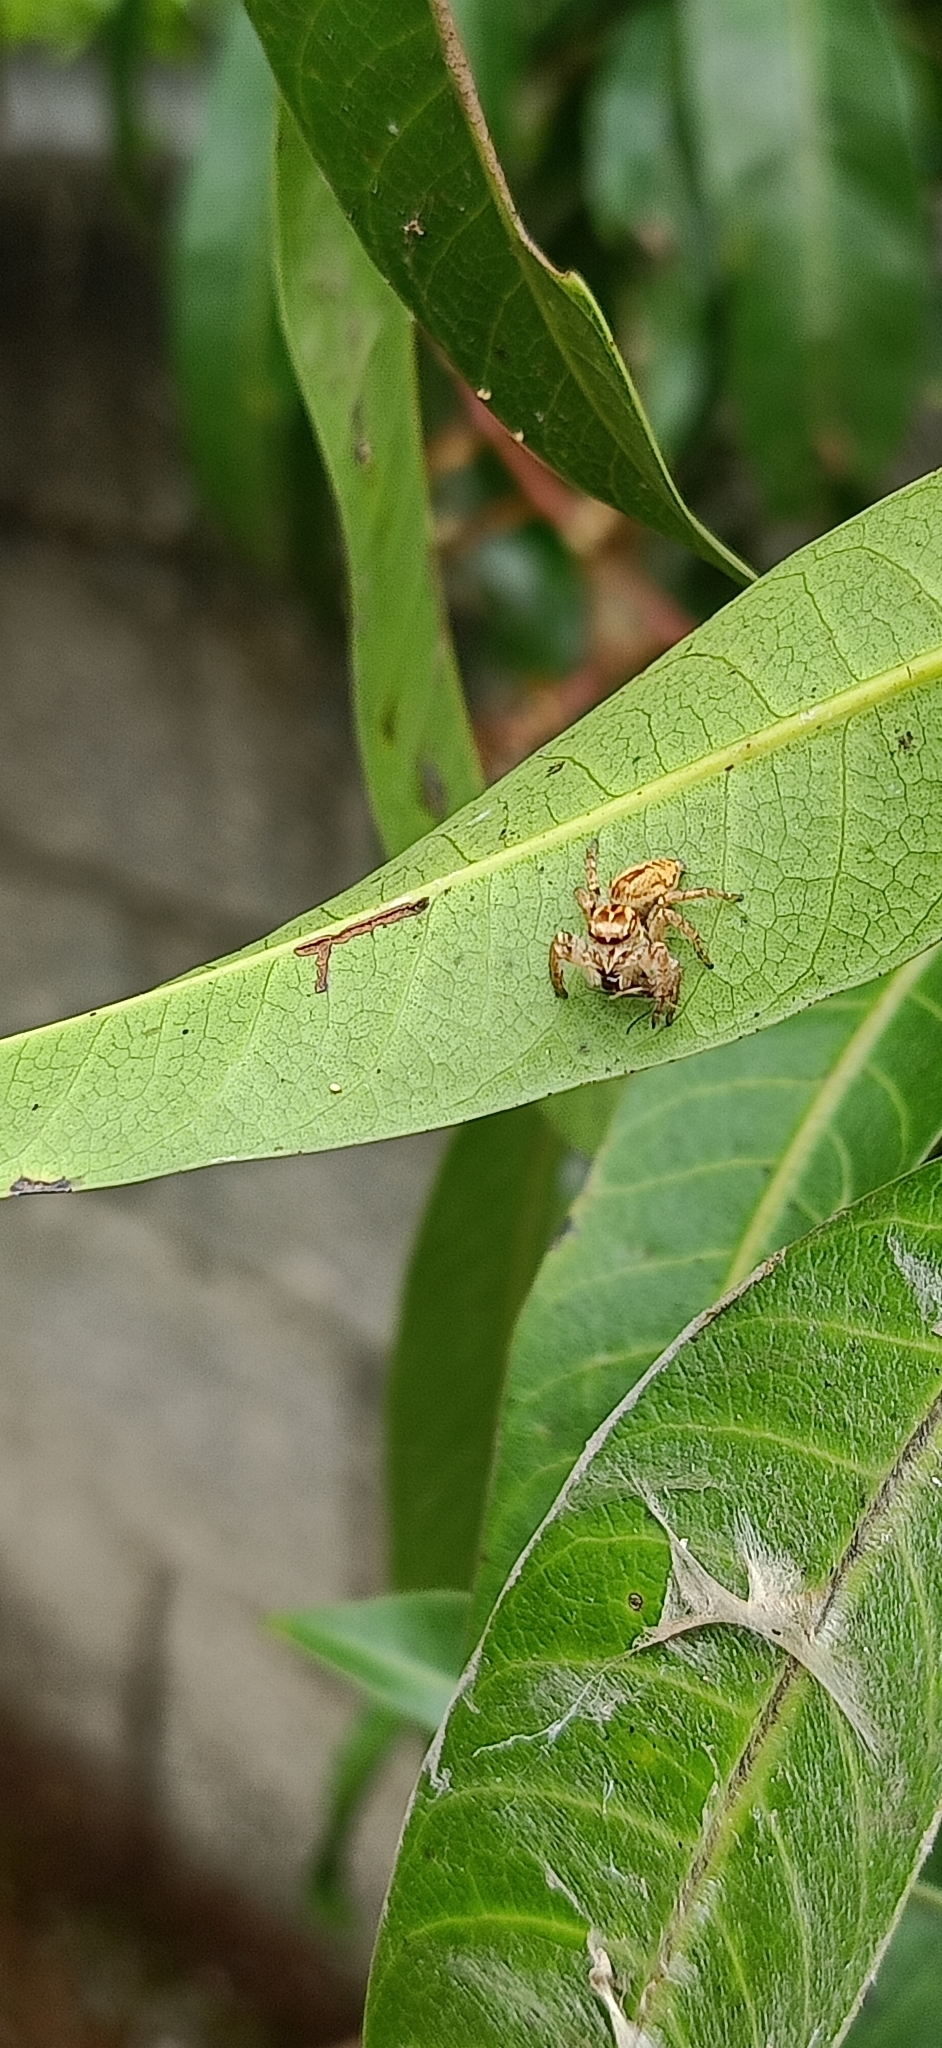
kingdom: Animalia
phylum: Arthropoda
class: Arachnida
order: Araneae
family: Salticidae
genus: Carrhotus
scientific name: Carrhotus viduus
